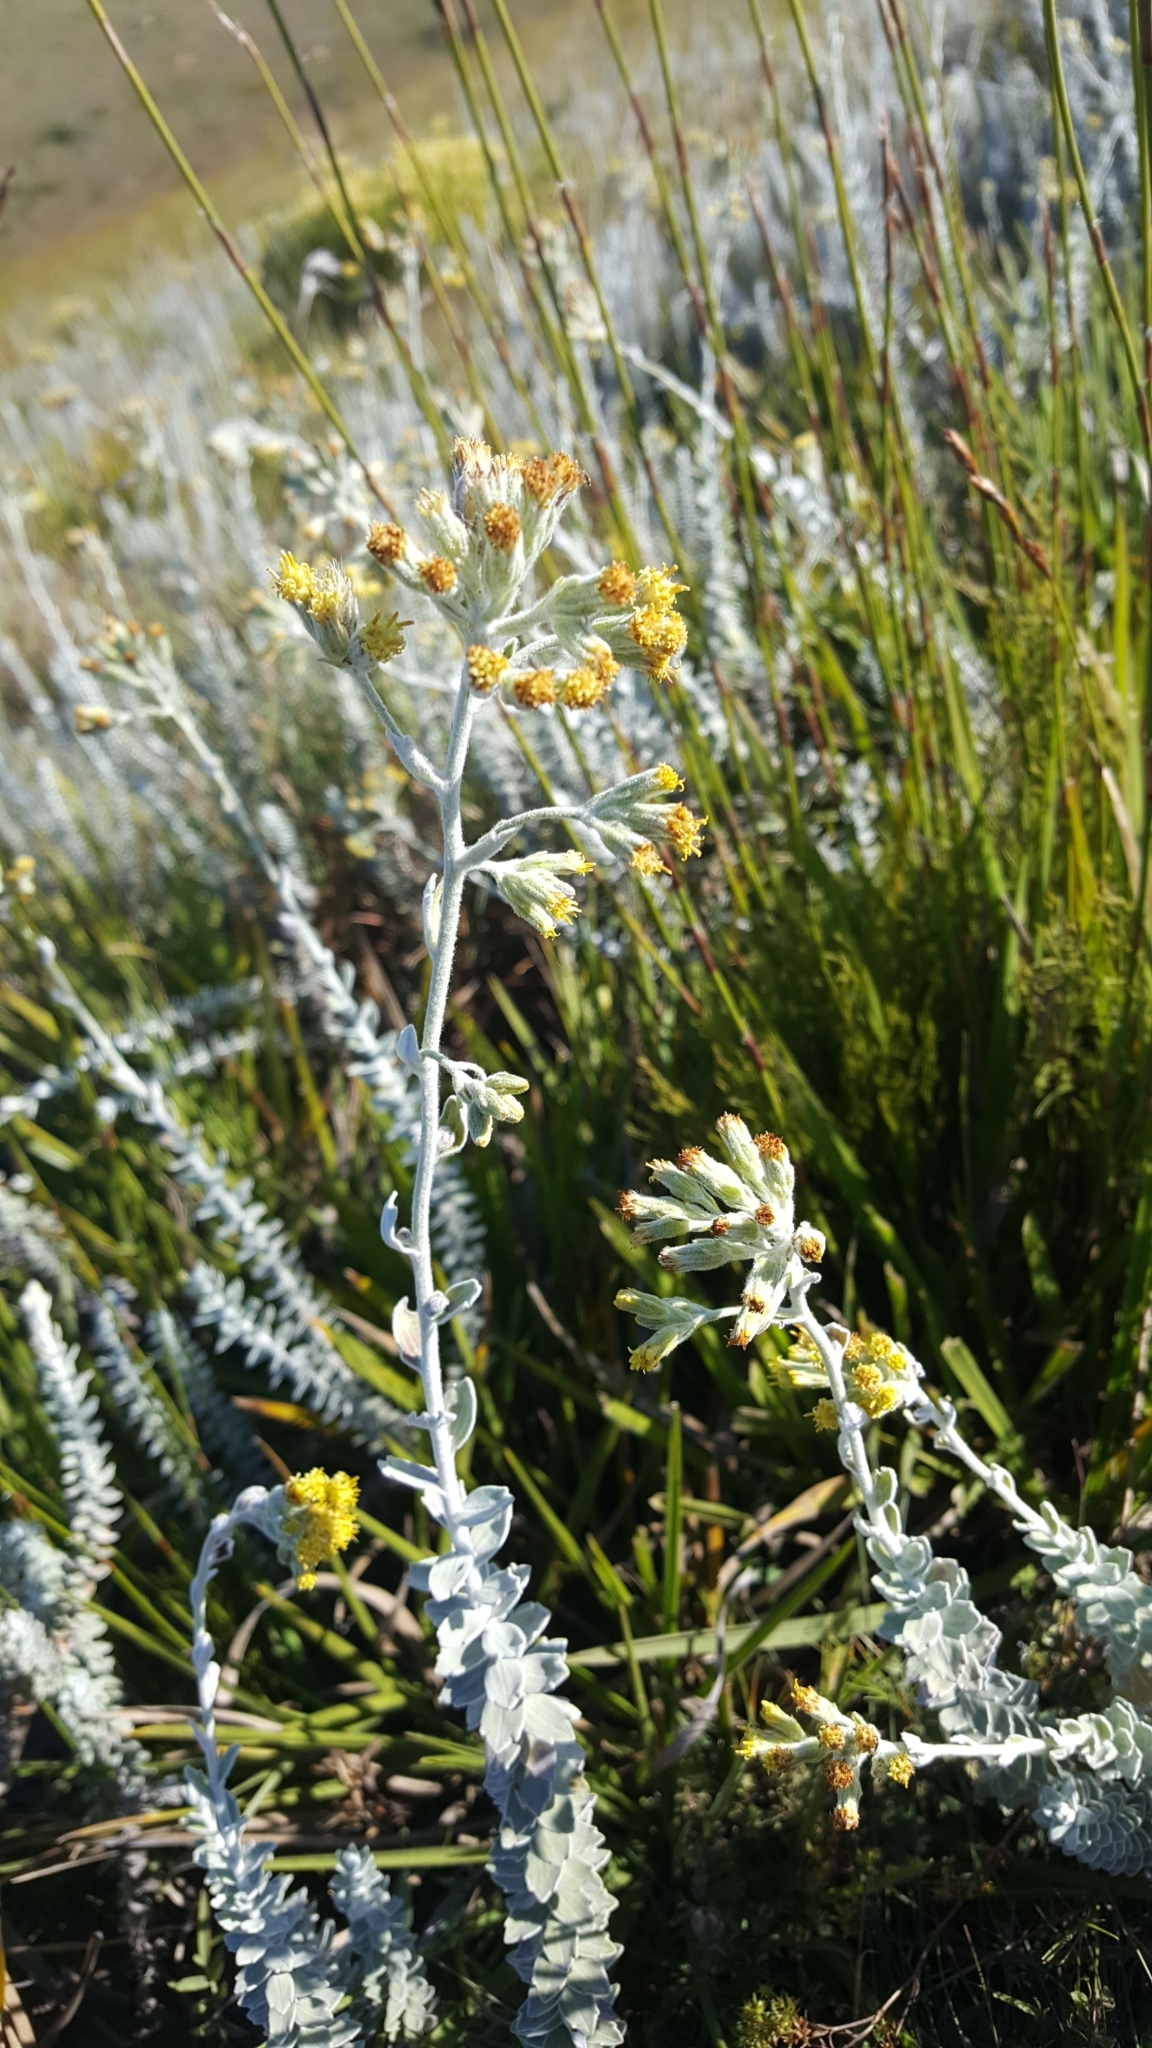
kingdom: Plantae
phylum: Tracheophyta
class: Magnoliopsida
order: Asterales
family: Asteraceae
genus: Senecio
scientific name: Senecio pauciflosculosus
